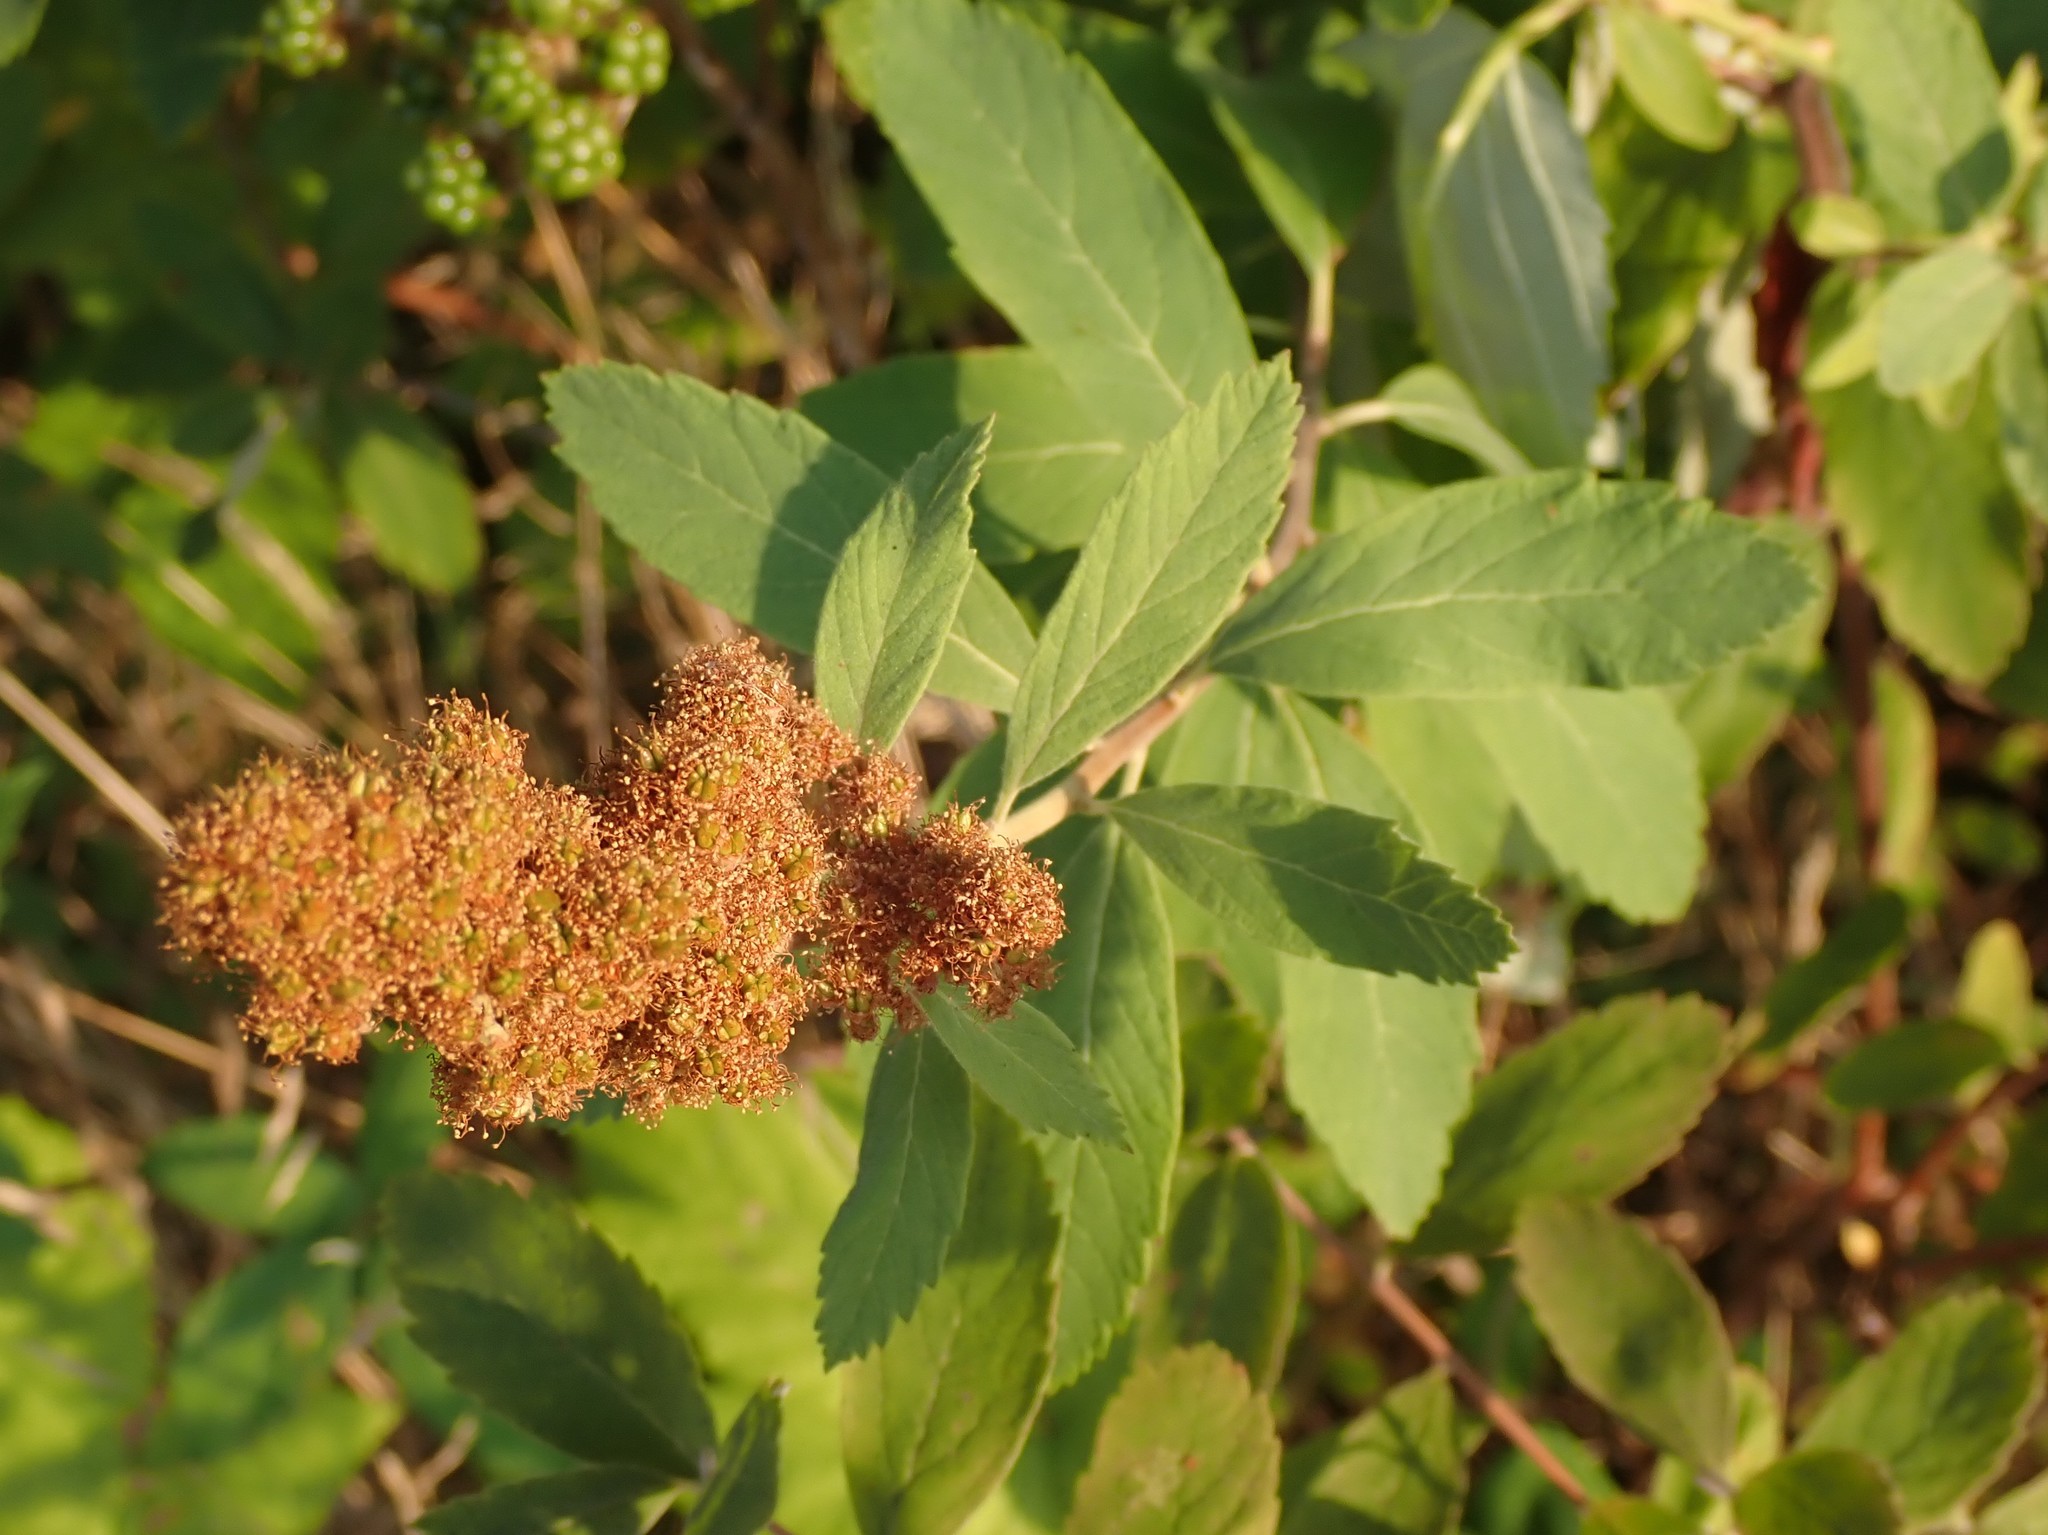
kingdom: Plantae
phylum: Tracheophyta
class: Magnoliopsida
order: Rosales
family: Rosaceae
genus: Spiraea
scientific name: Spiraea douglasii
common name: Steeplebush
